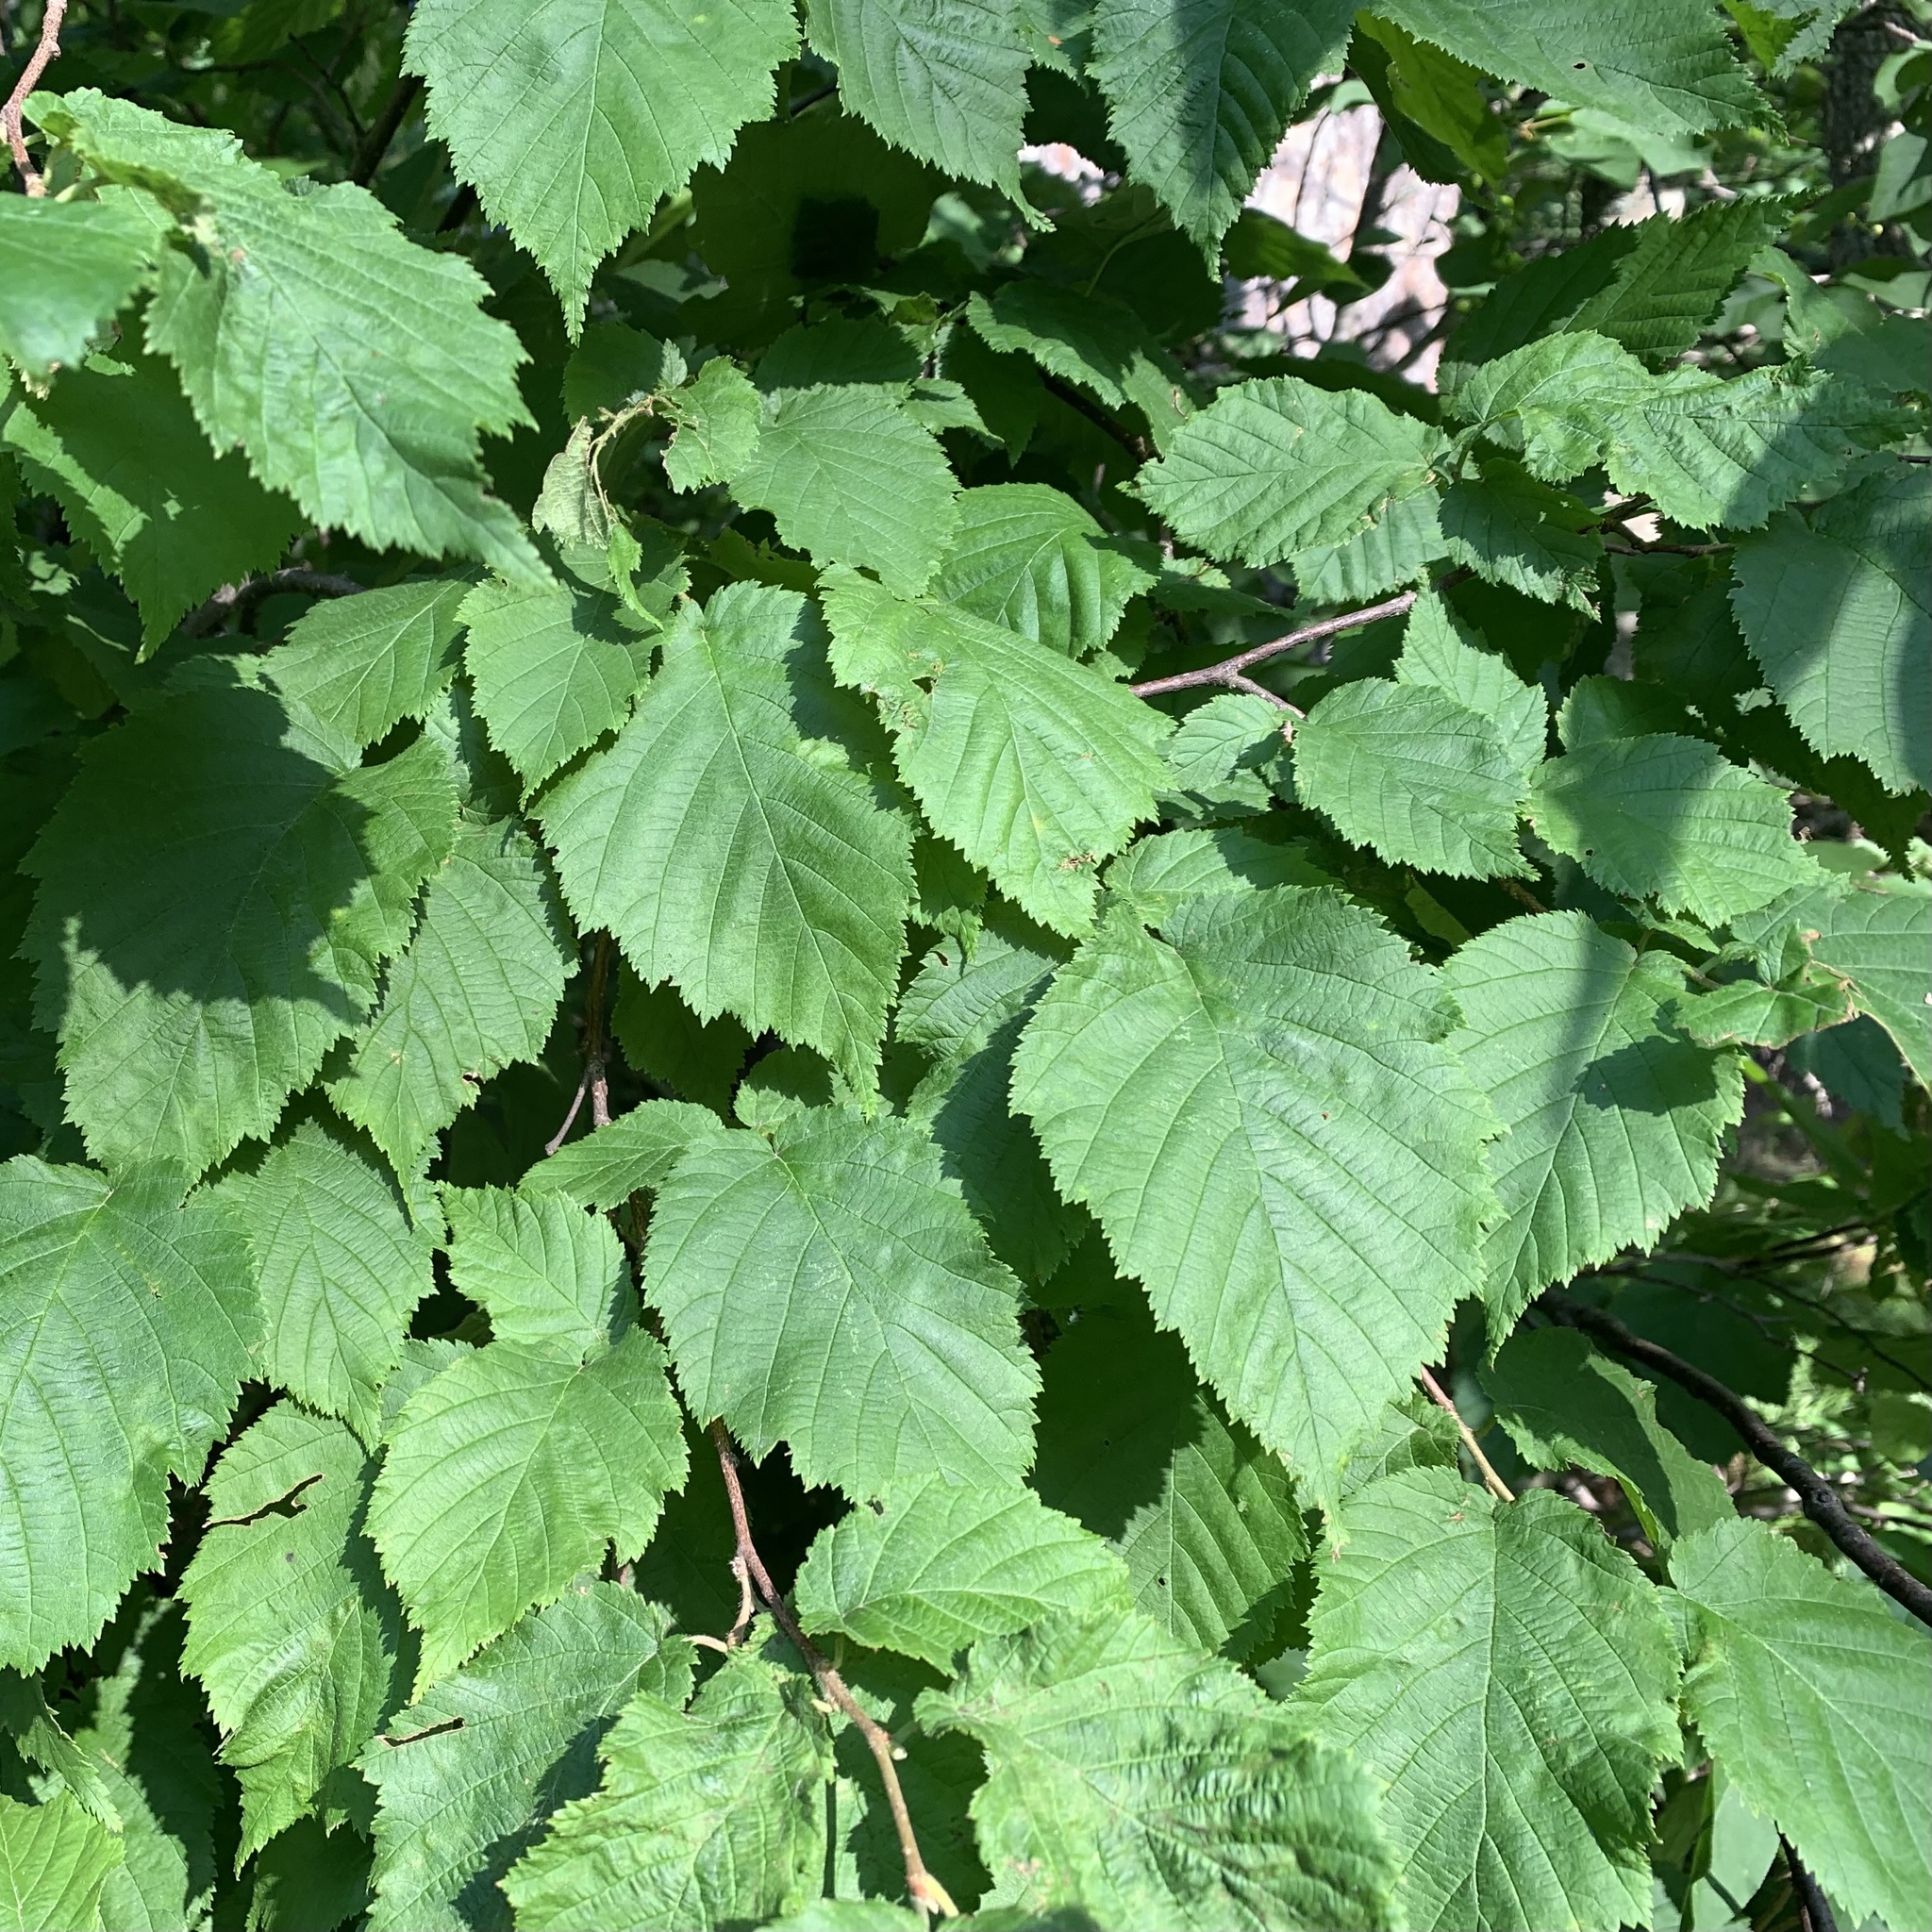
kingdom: Plantae
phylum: Tracheophyta
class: Magnoliopsida
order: Fagales
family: Betulaceae
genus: Corylus
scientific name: Corylus cornuta
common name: Beaked hazel
